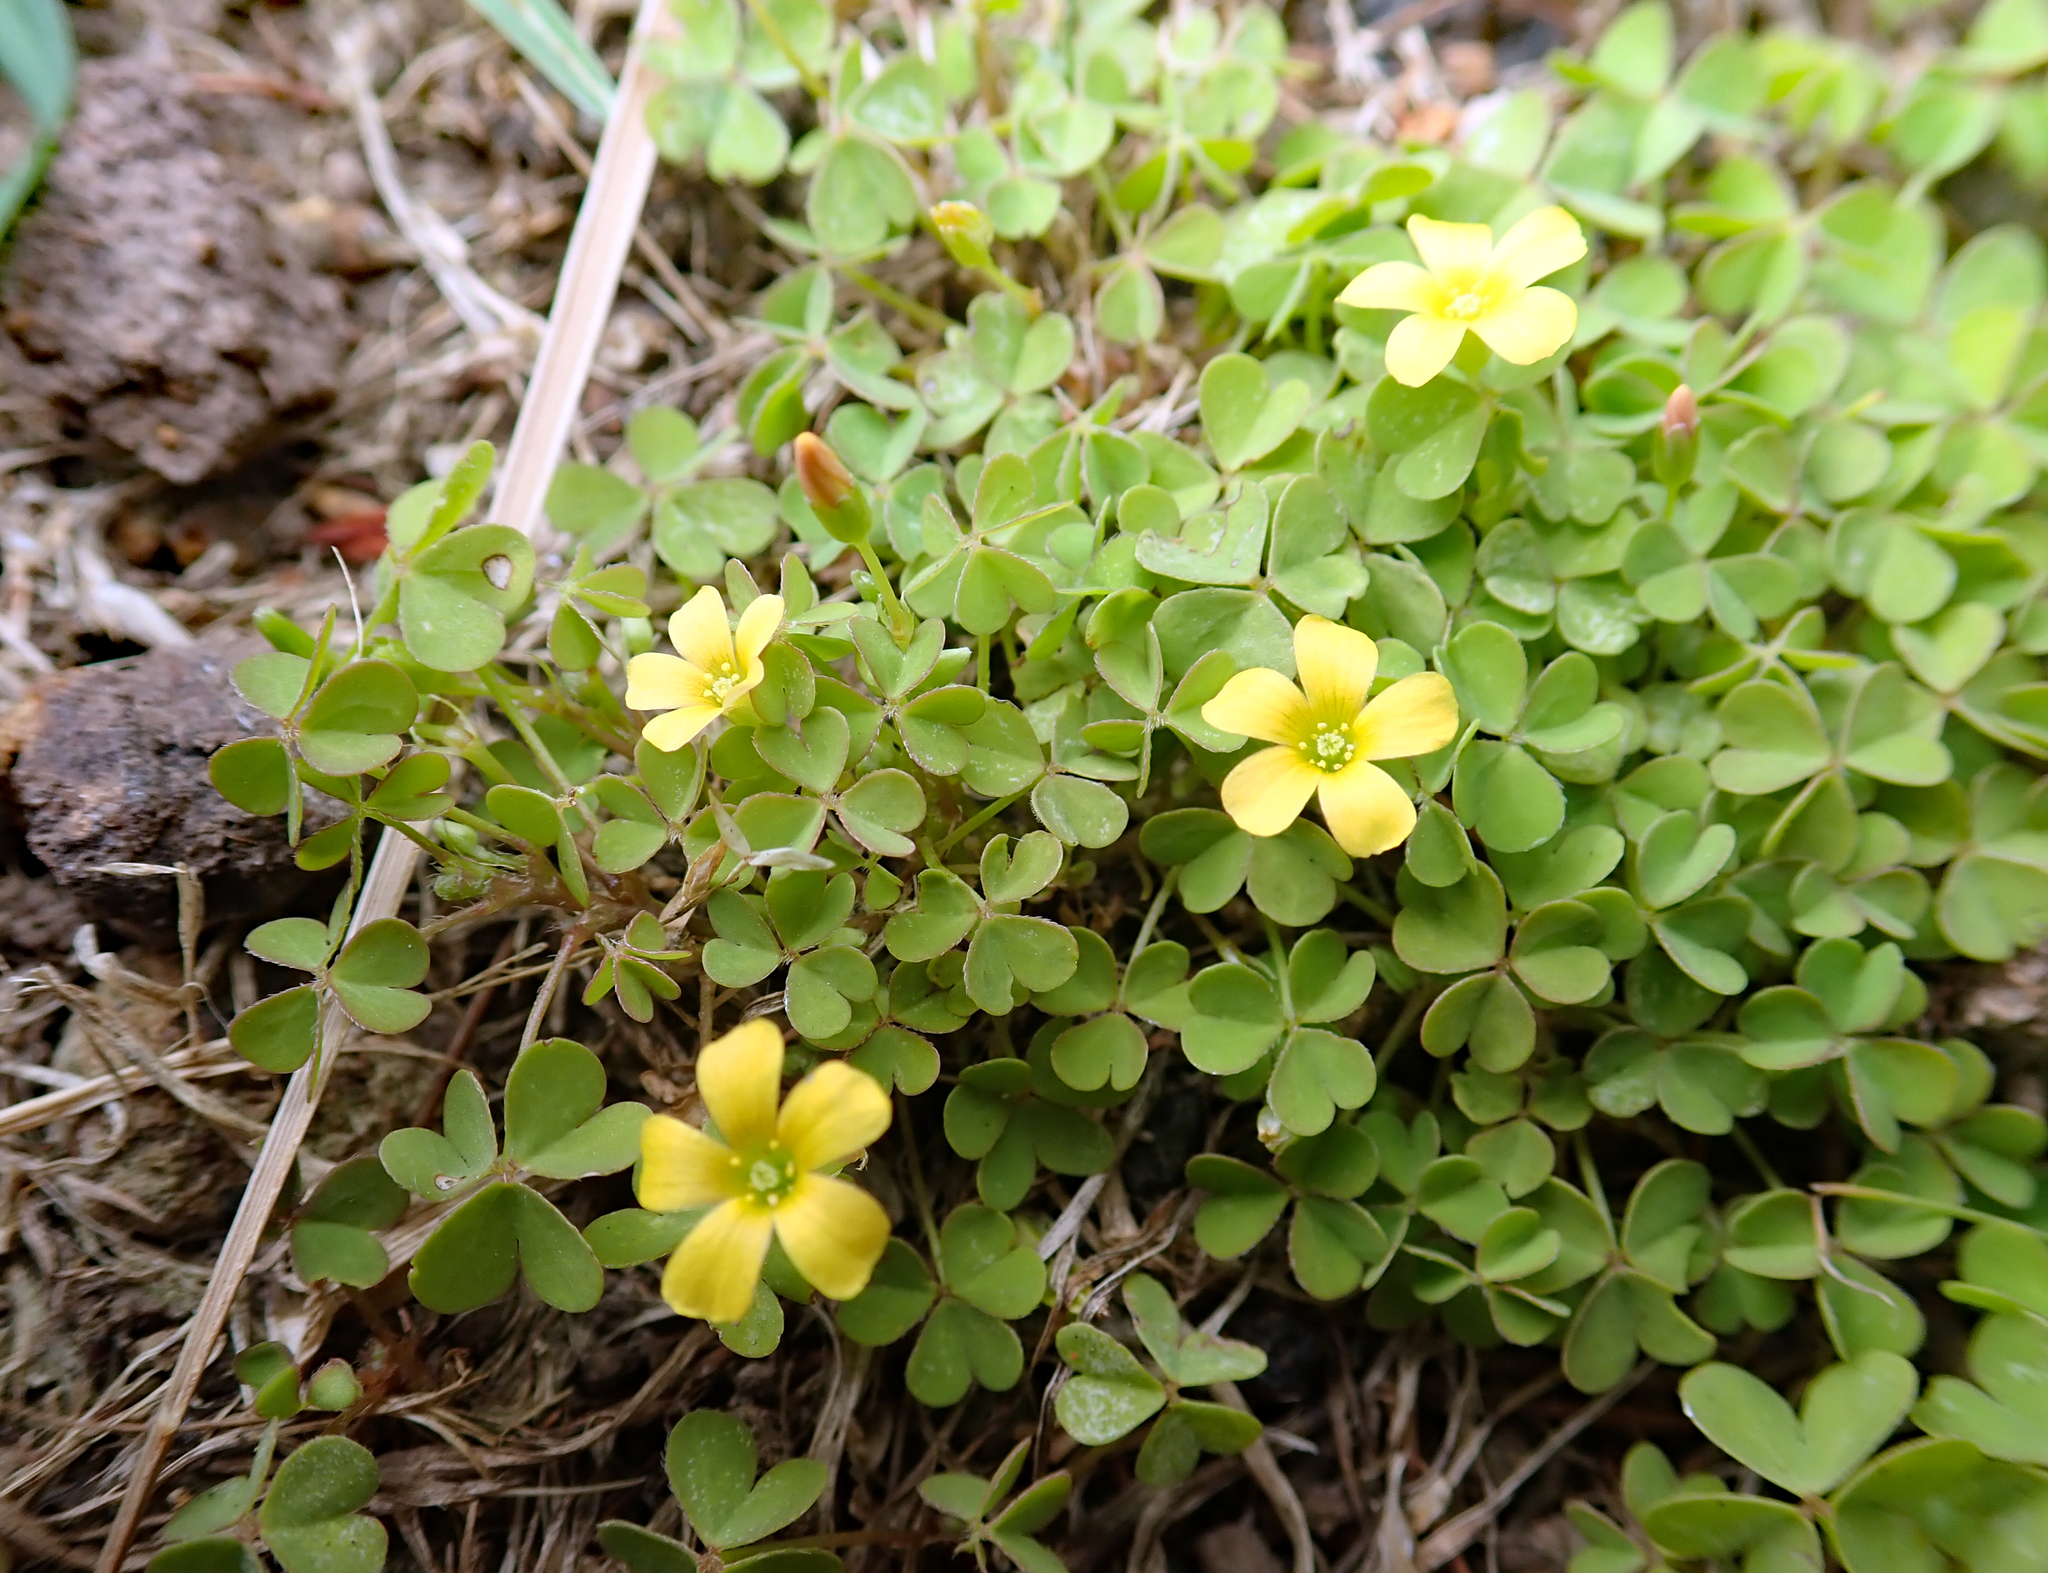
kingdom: Plantae
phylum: Tracheophyta
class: Magnoliopsida
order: Oxalidales
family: Oxalidaceae
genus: Oxalis
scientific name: Oxalis exilis
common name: Least yellow-sorrel
